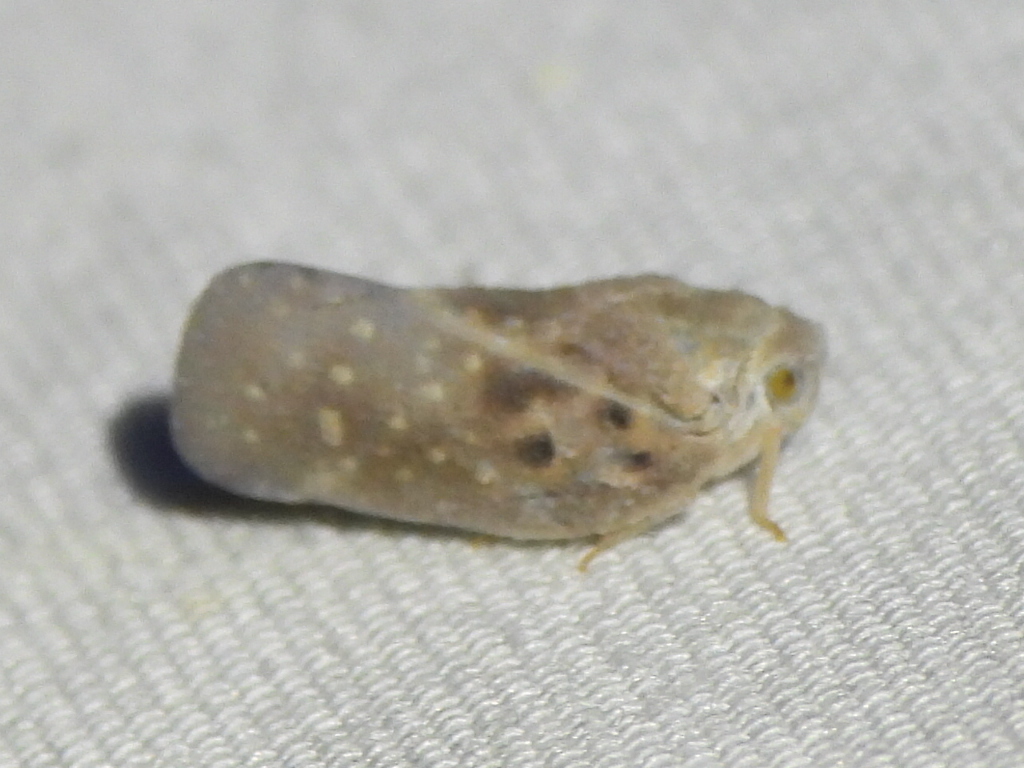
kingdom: Animalia
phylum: Arthropoda
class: Insecta
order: Hemiptera
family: Flatidae
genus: Metcalfa
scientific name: Metcalfa pruinosa
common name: Citrus flatid planthopper
